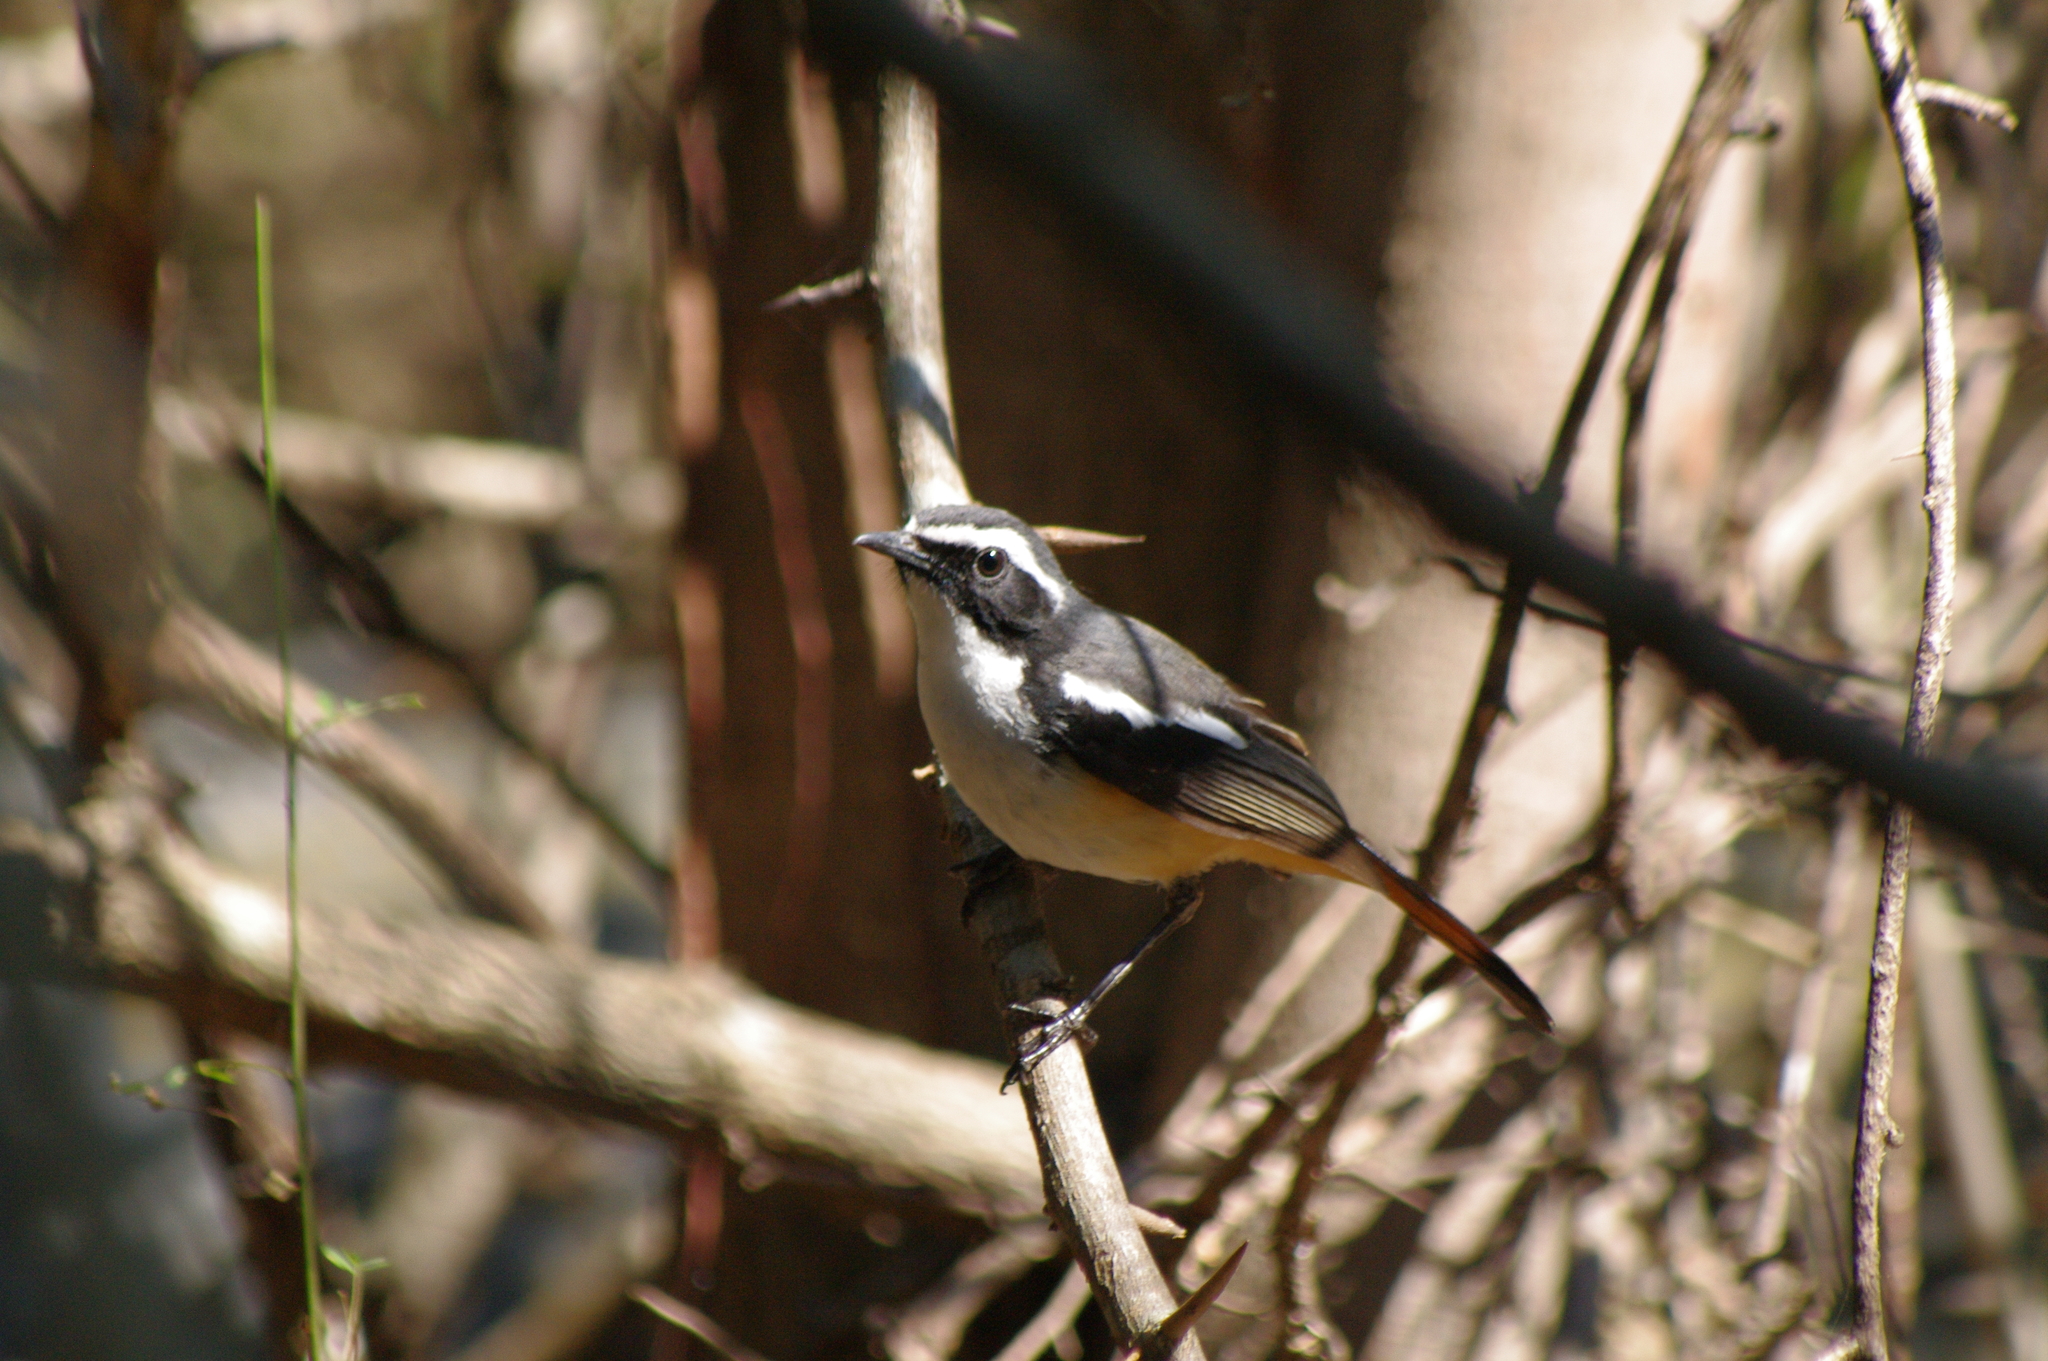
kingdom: Animalia
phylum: Chordata
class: Aves
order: Passeriformes
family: Muscicapidae
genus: Cossypha
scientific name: Cossypha humeralis
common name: White-throated robin-chat
